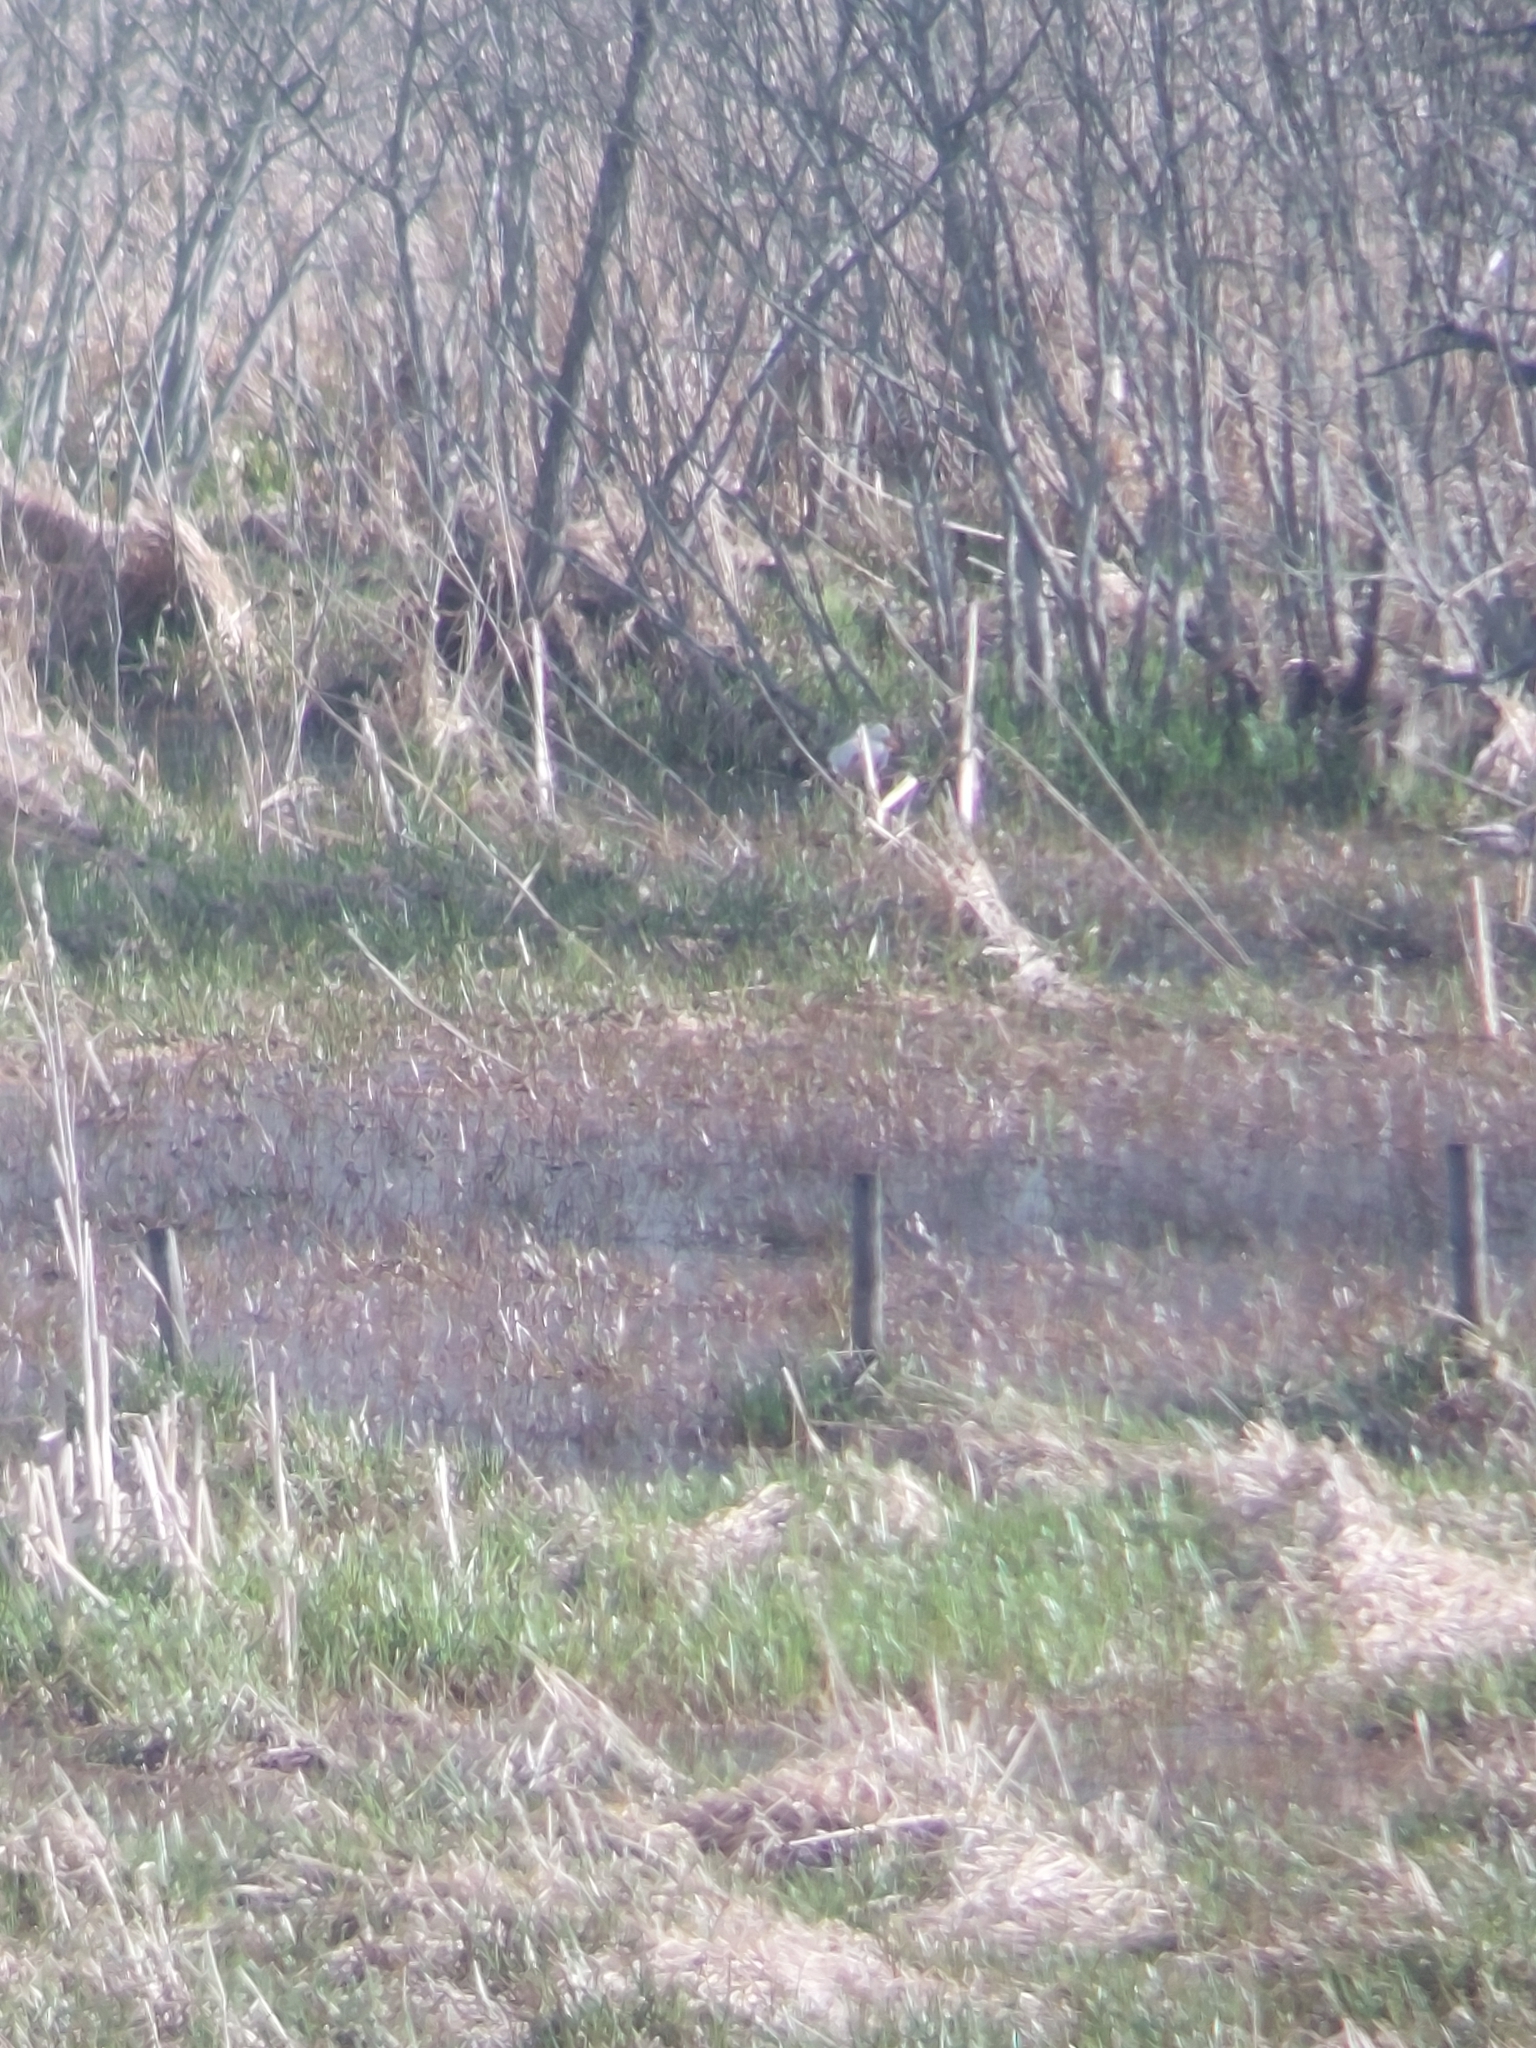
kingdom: Animalia
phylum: Chordata
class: Aves
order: Anseriformes
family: Anatidae
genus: Anas
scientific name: Anas platyrhynchos
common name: Mallard
